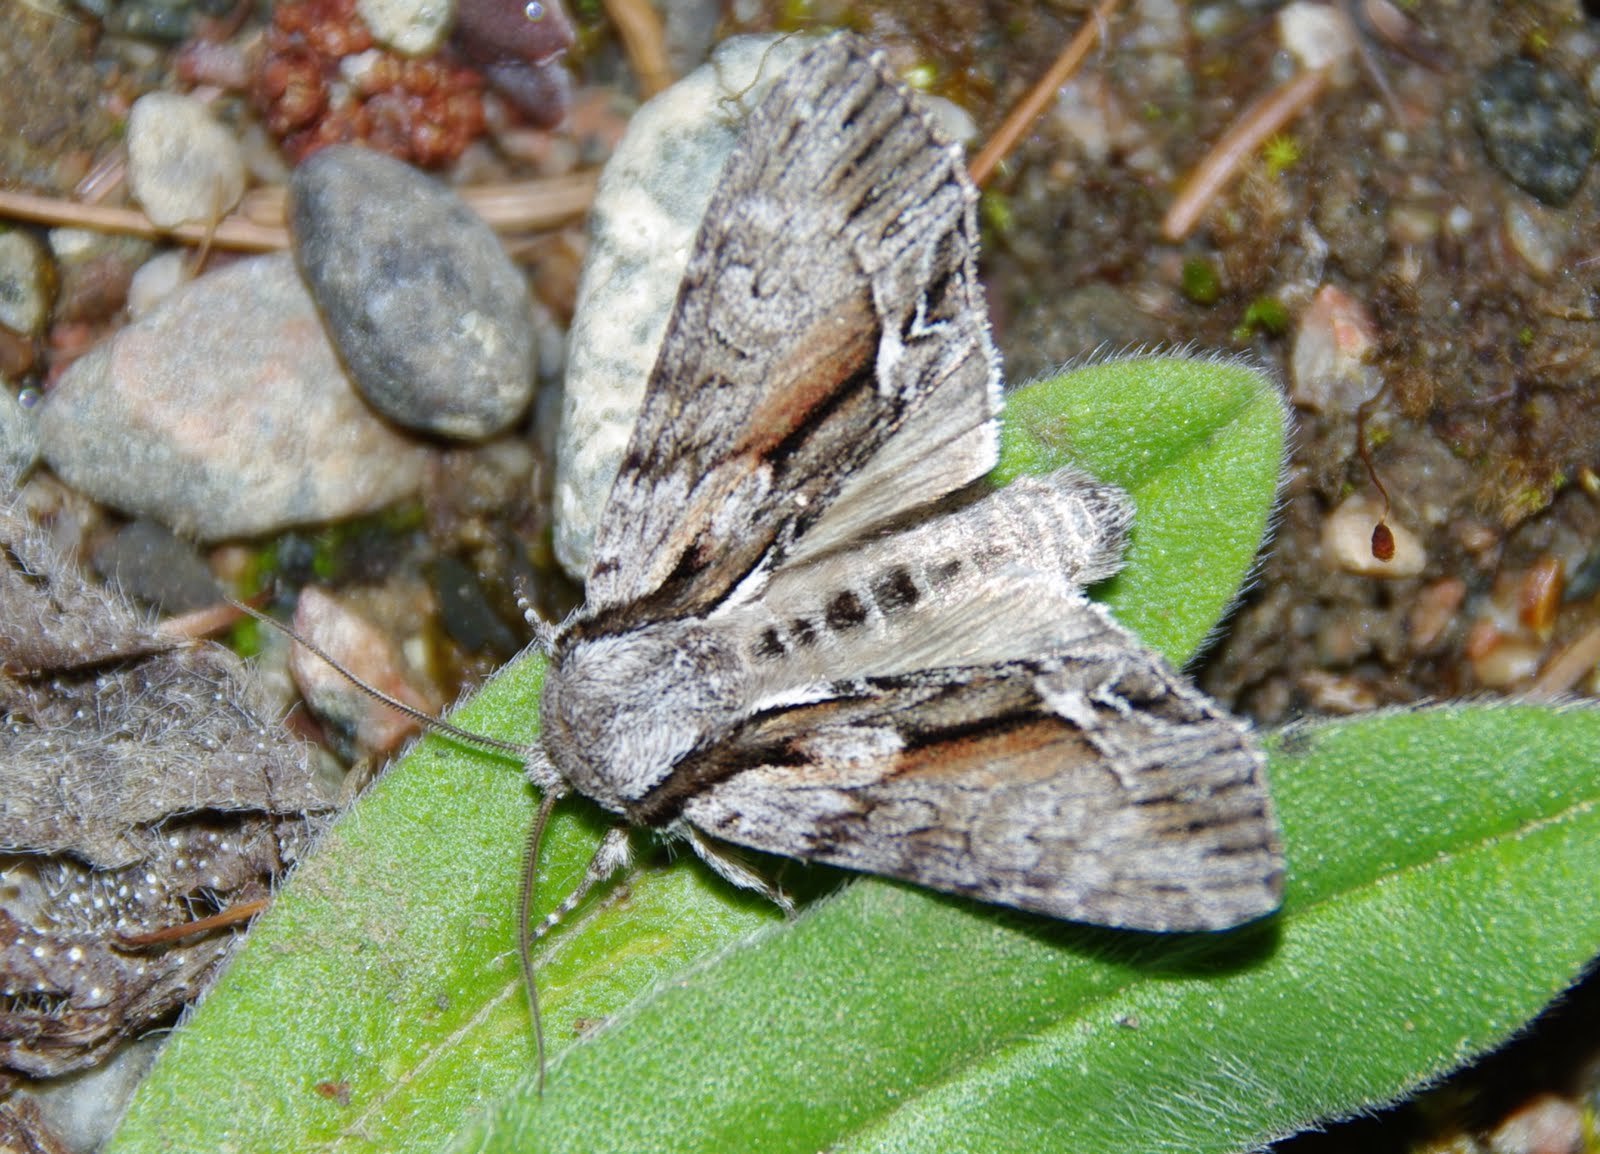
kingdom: Animalia
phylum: Arthropoda
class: Insecta
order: Lepidoptera
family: Noctuidae
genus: Hyppa
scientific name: Hyppa xylinoides
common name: Common hyppa moth
